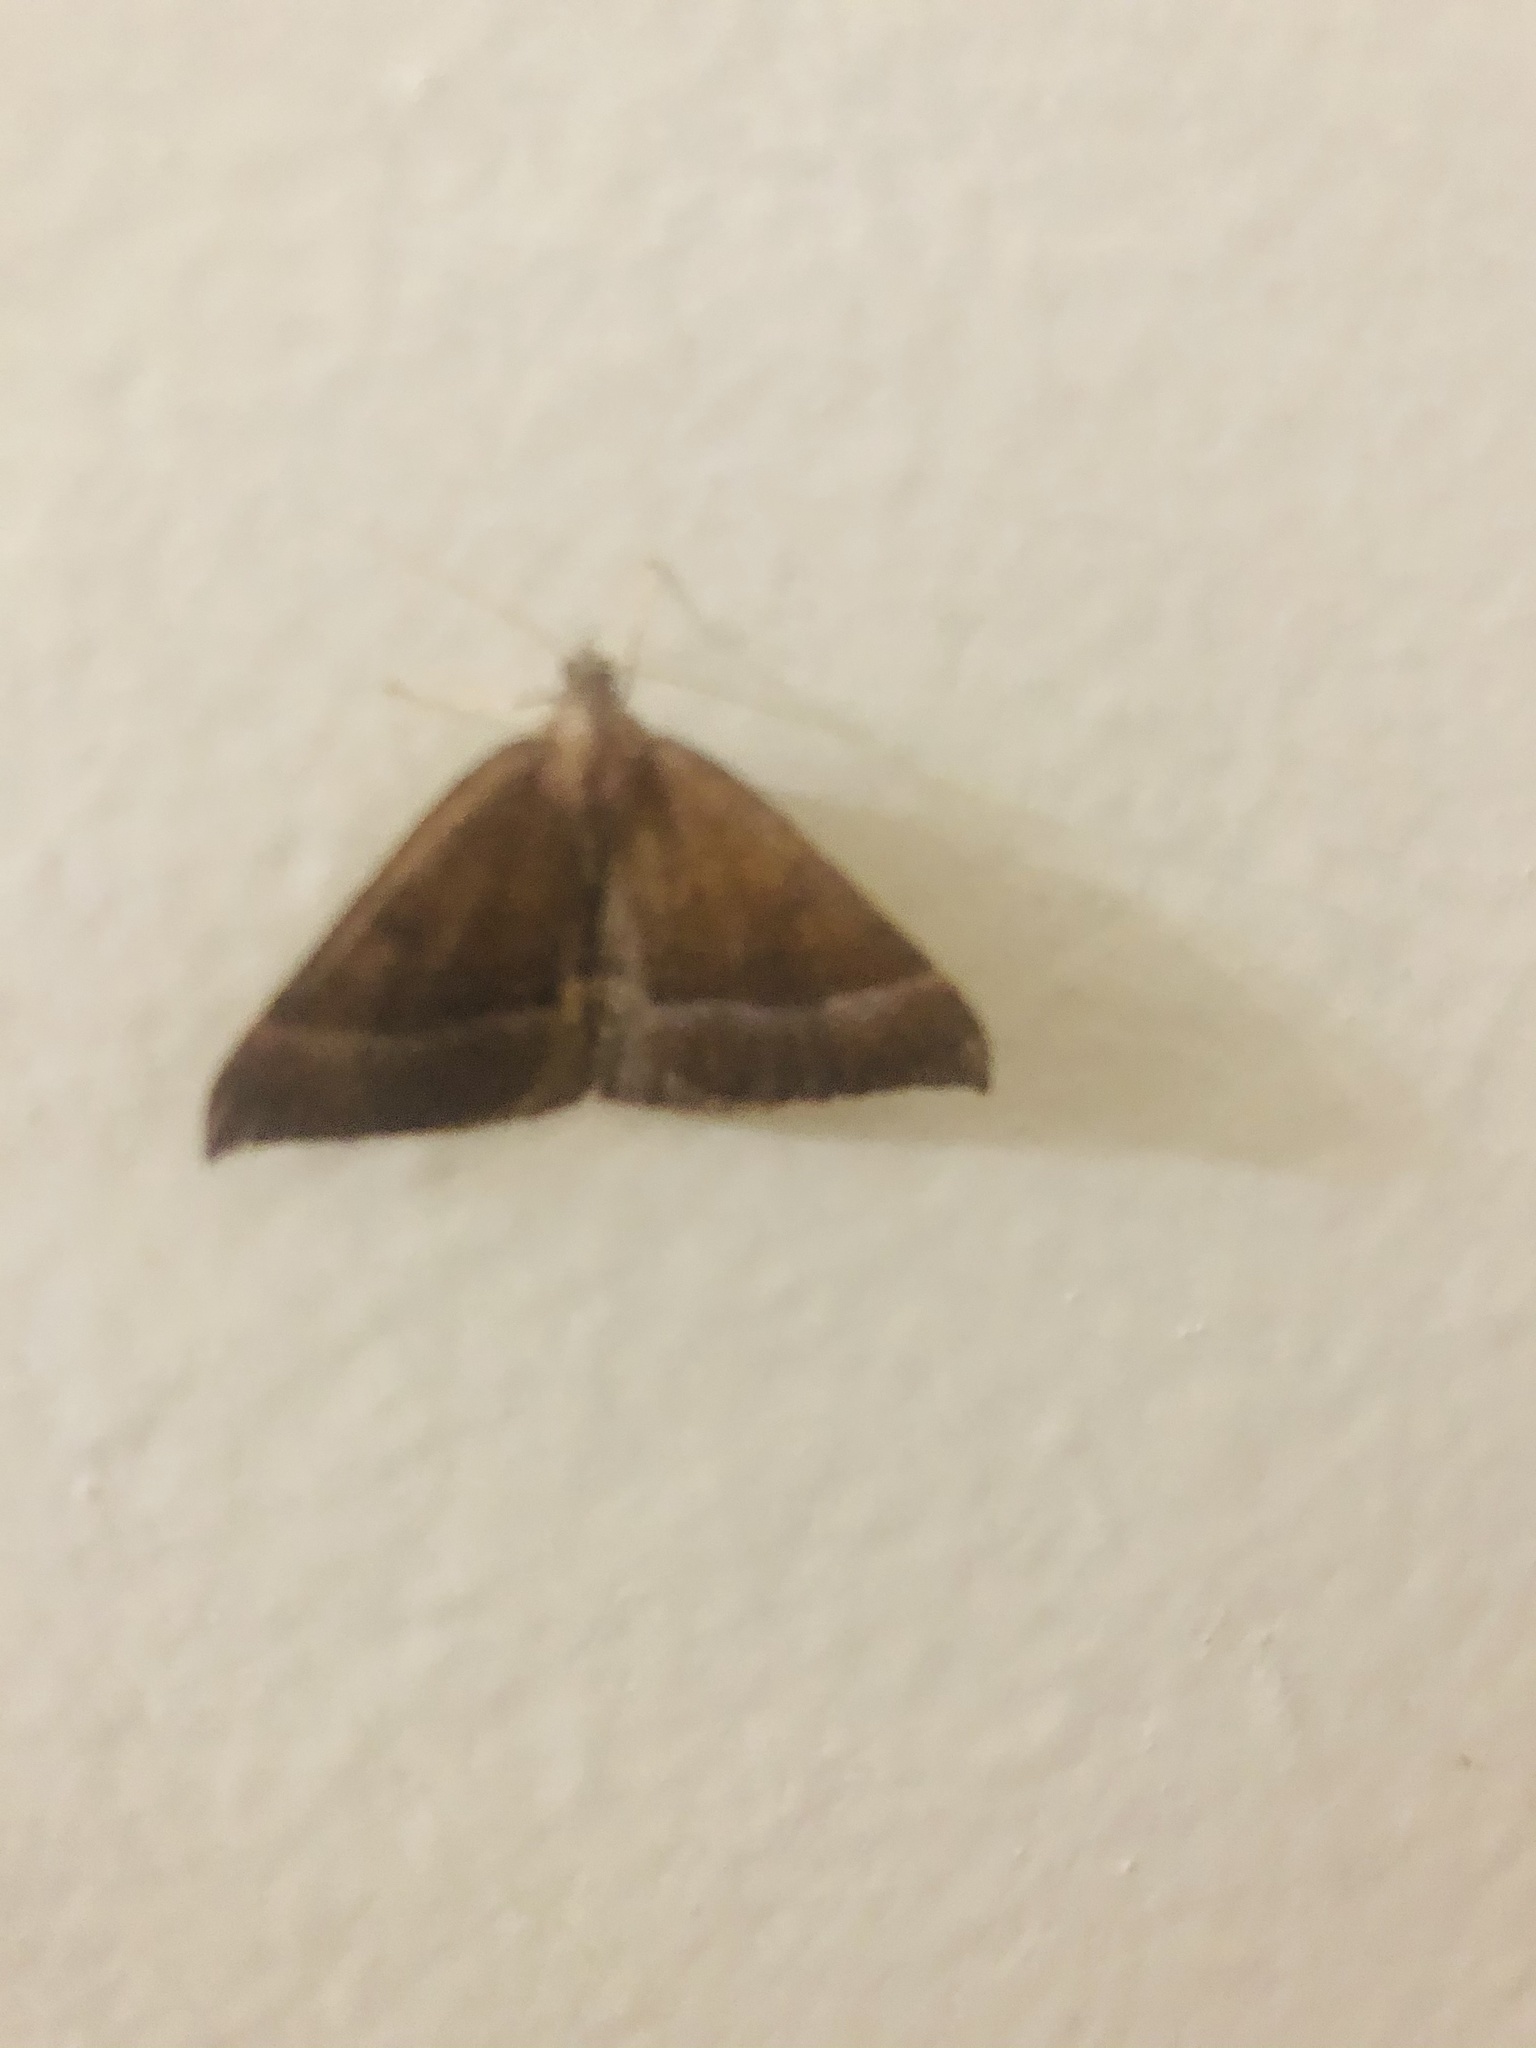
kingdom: Animalia
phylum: Arthropoda
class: Insecta
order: Lepidoptera
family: Geometridae
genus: Ennada
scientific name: Ennada flavaria
